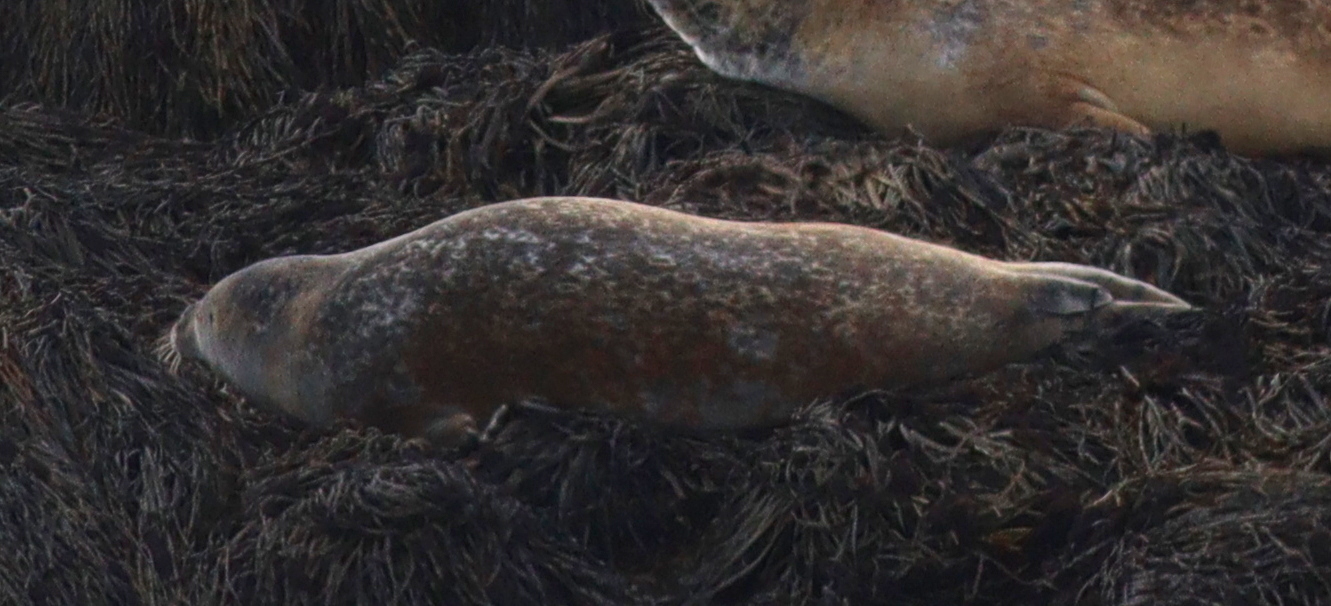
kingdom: Animalia
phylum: Chordata
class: Mammalia
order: Carnivora
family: Phocidae
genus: Phoca
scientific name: Phoca vitulina
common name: Harbor seal
